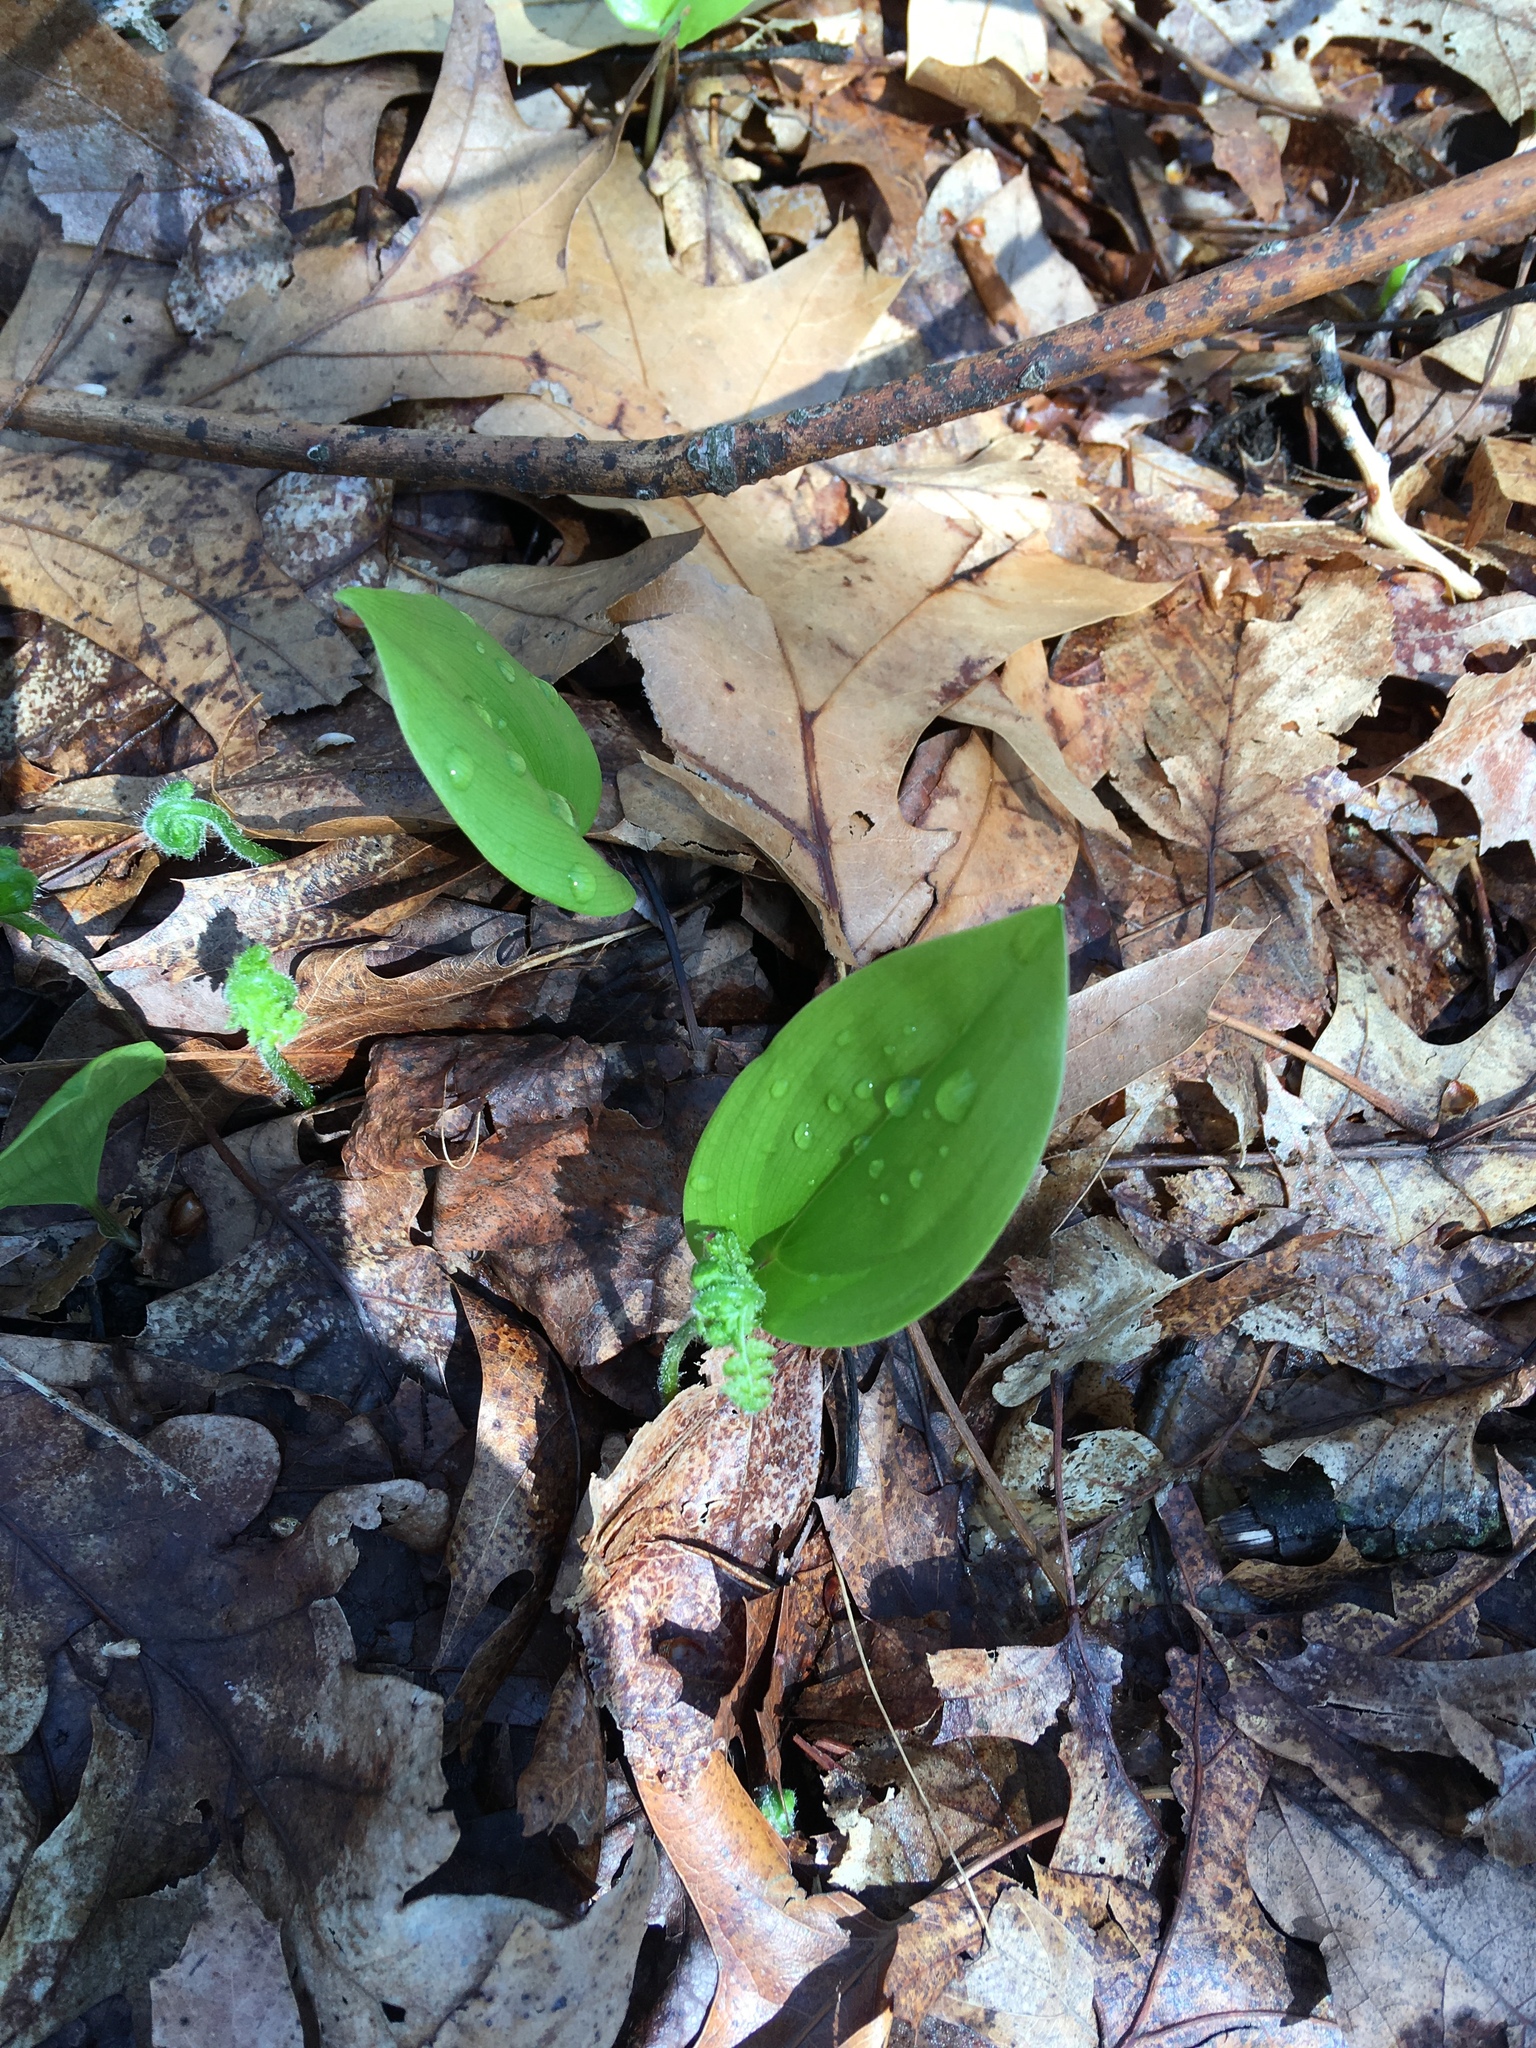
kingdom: Plantae
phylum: Tracheophyta
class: Liliopsida
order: Asparagales
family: Asparagaceae
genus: Maianthemum
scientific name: Maianthemum canadense
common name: False lily-of-the-valley
